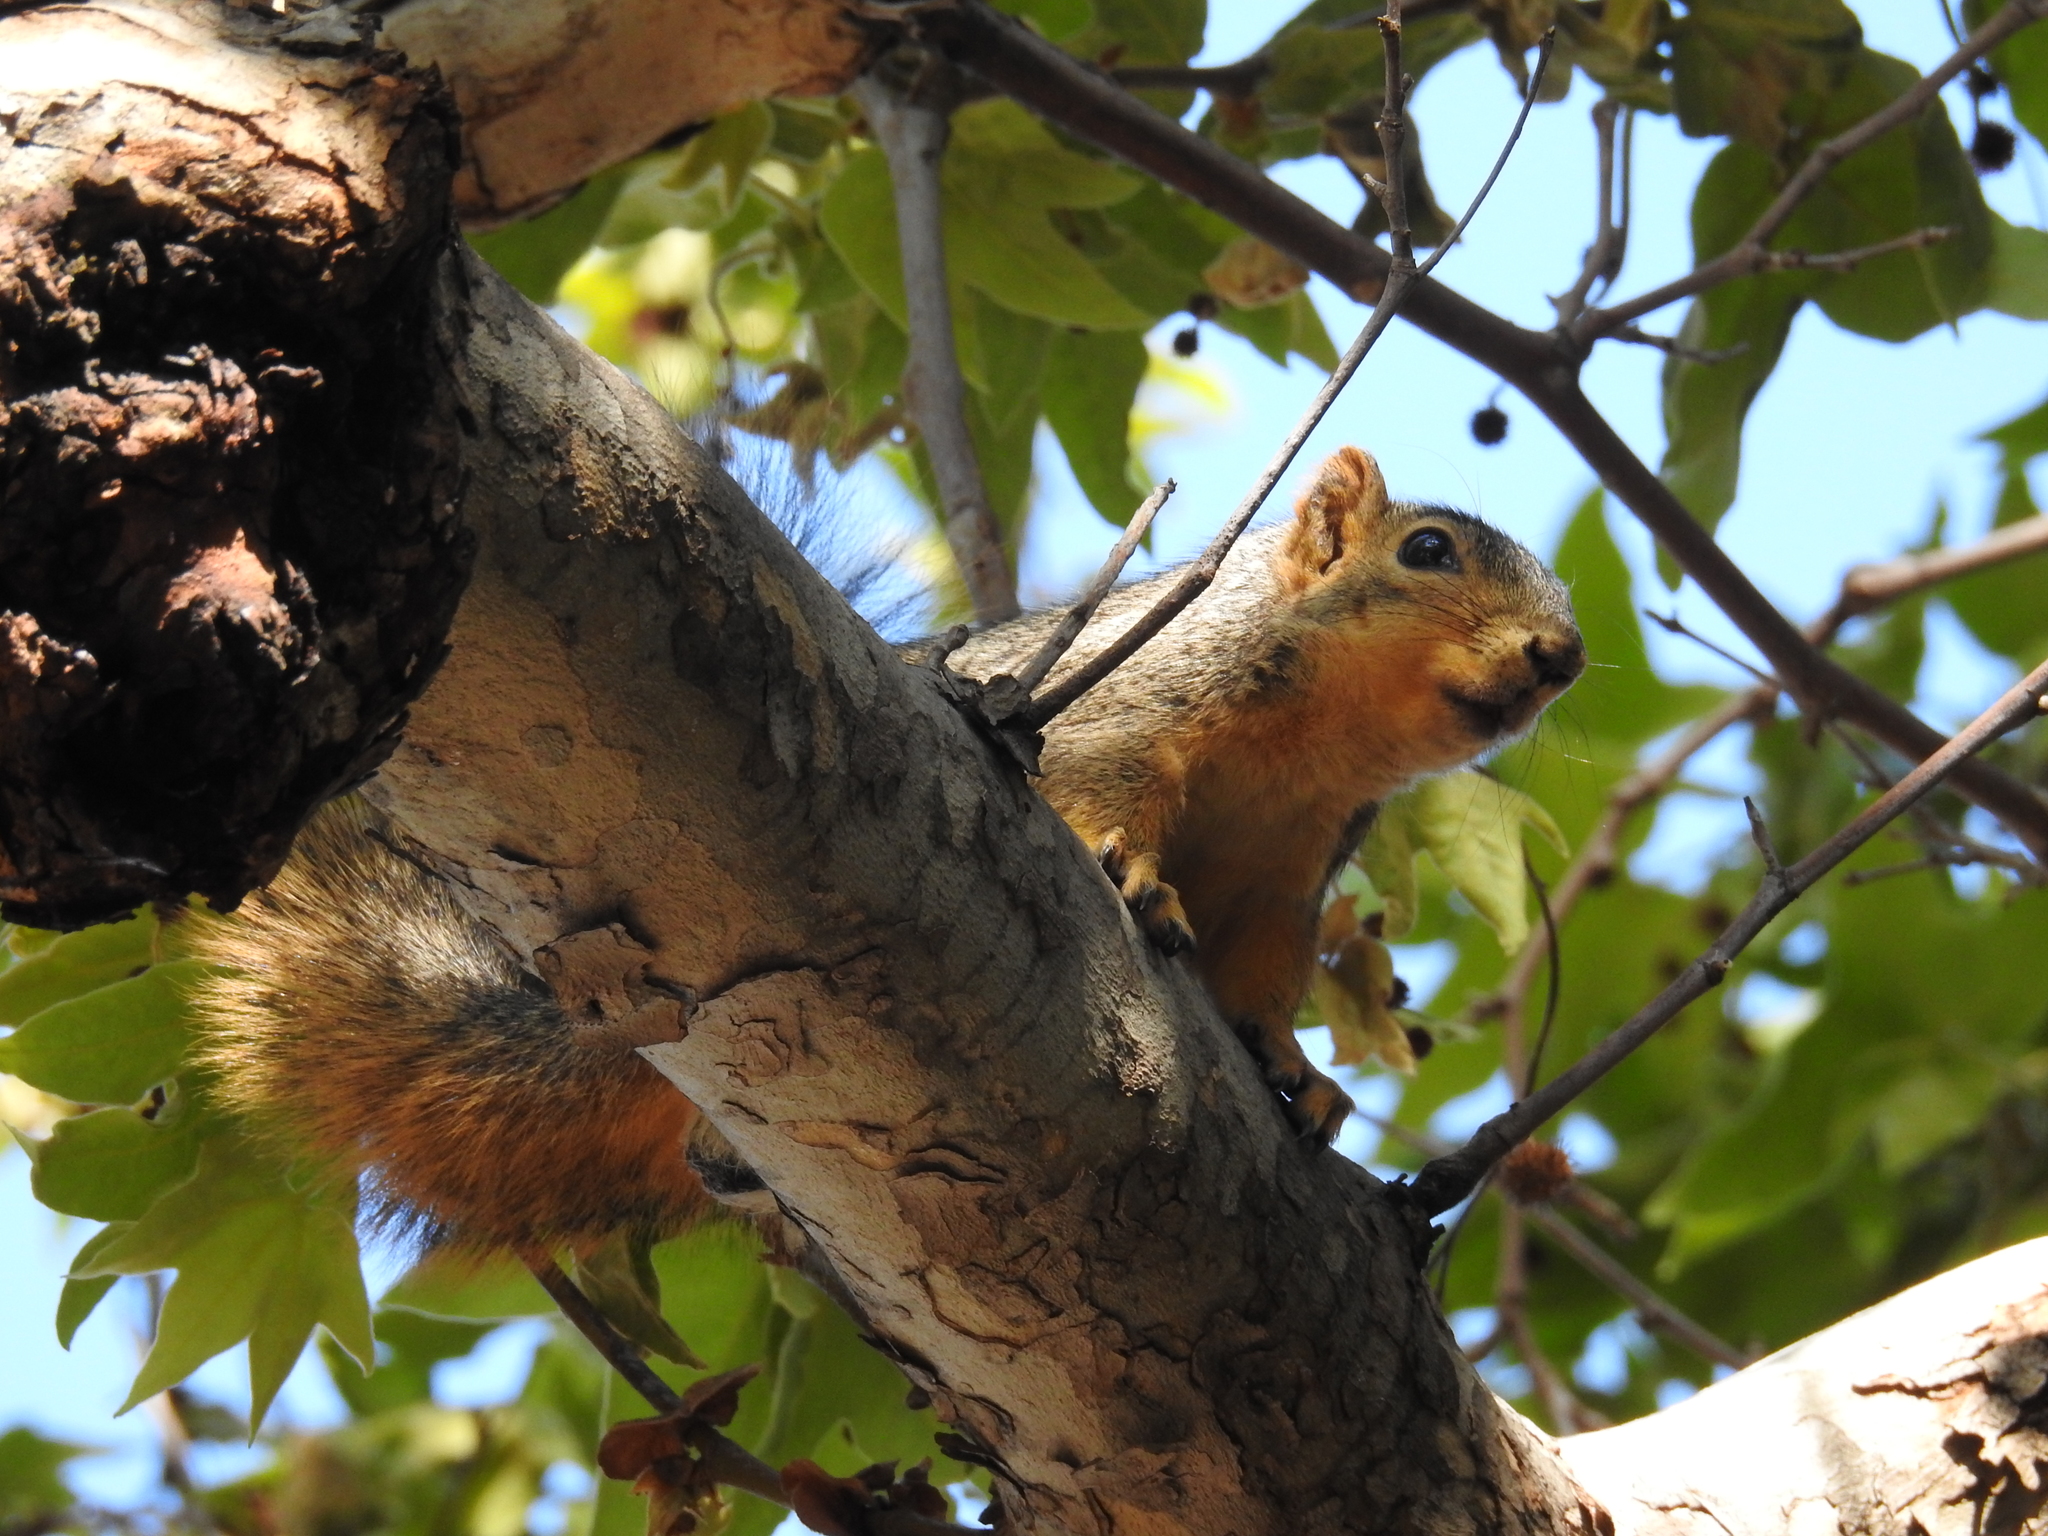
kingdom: Animalia
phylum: Chordata
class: Mammalia
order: Rodentia
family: Sciuridae
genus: Sciurus
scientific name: Sciurus niger
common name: Fox squirrel
